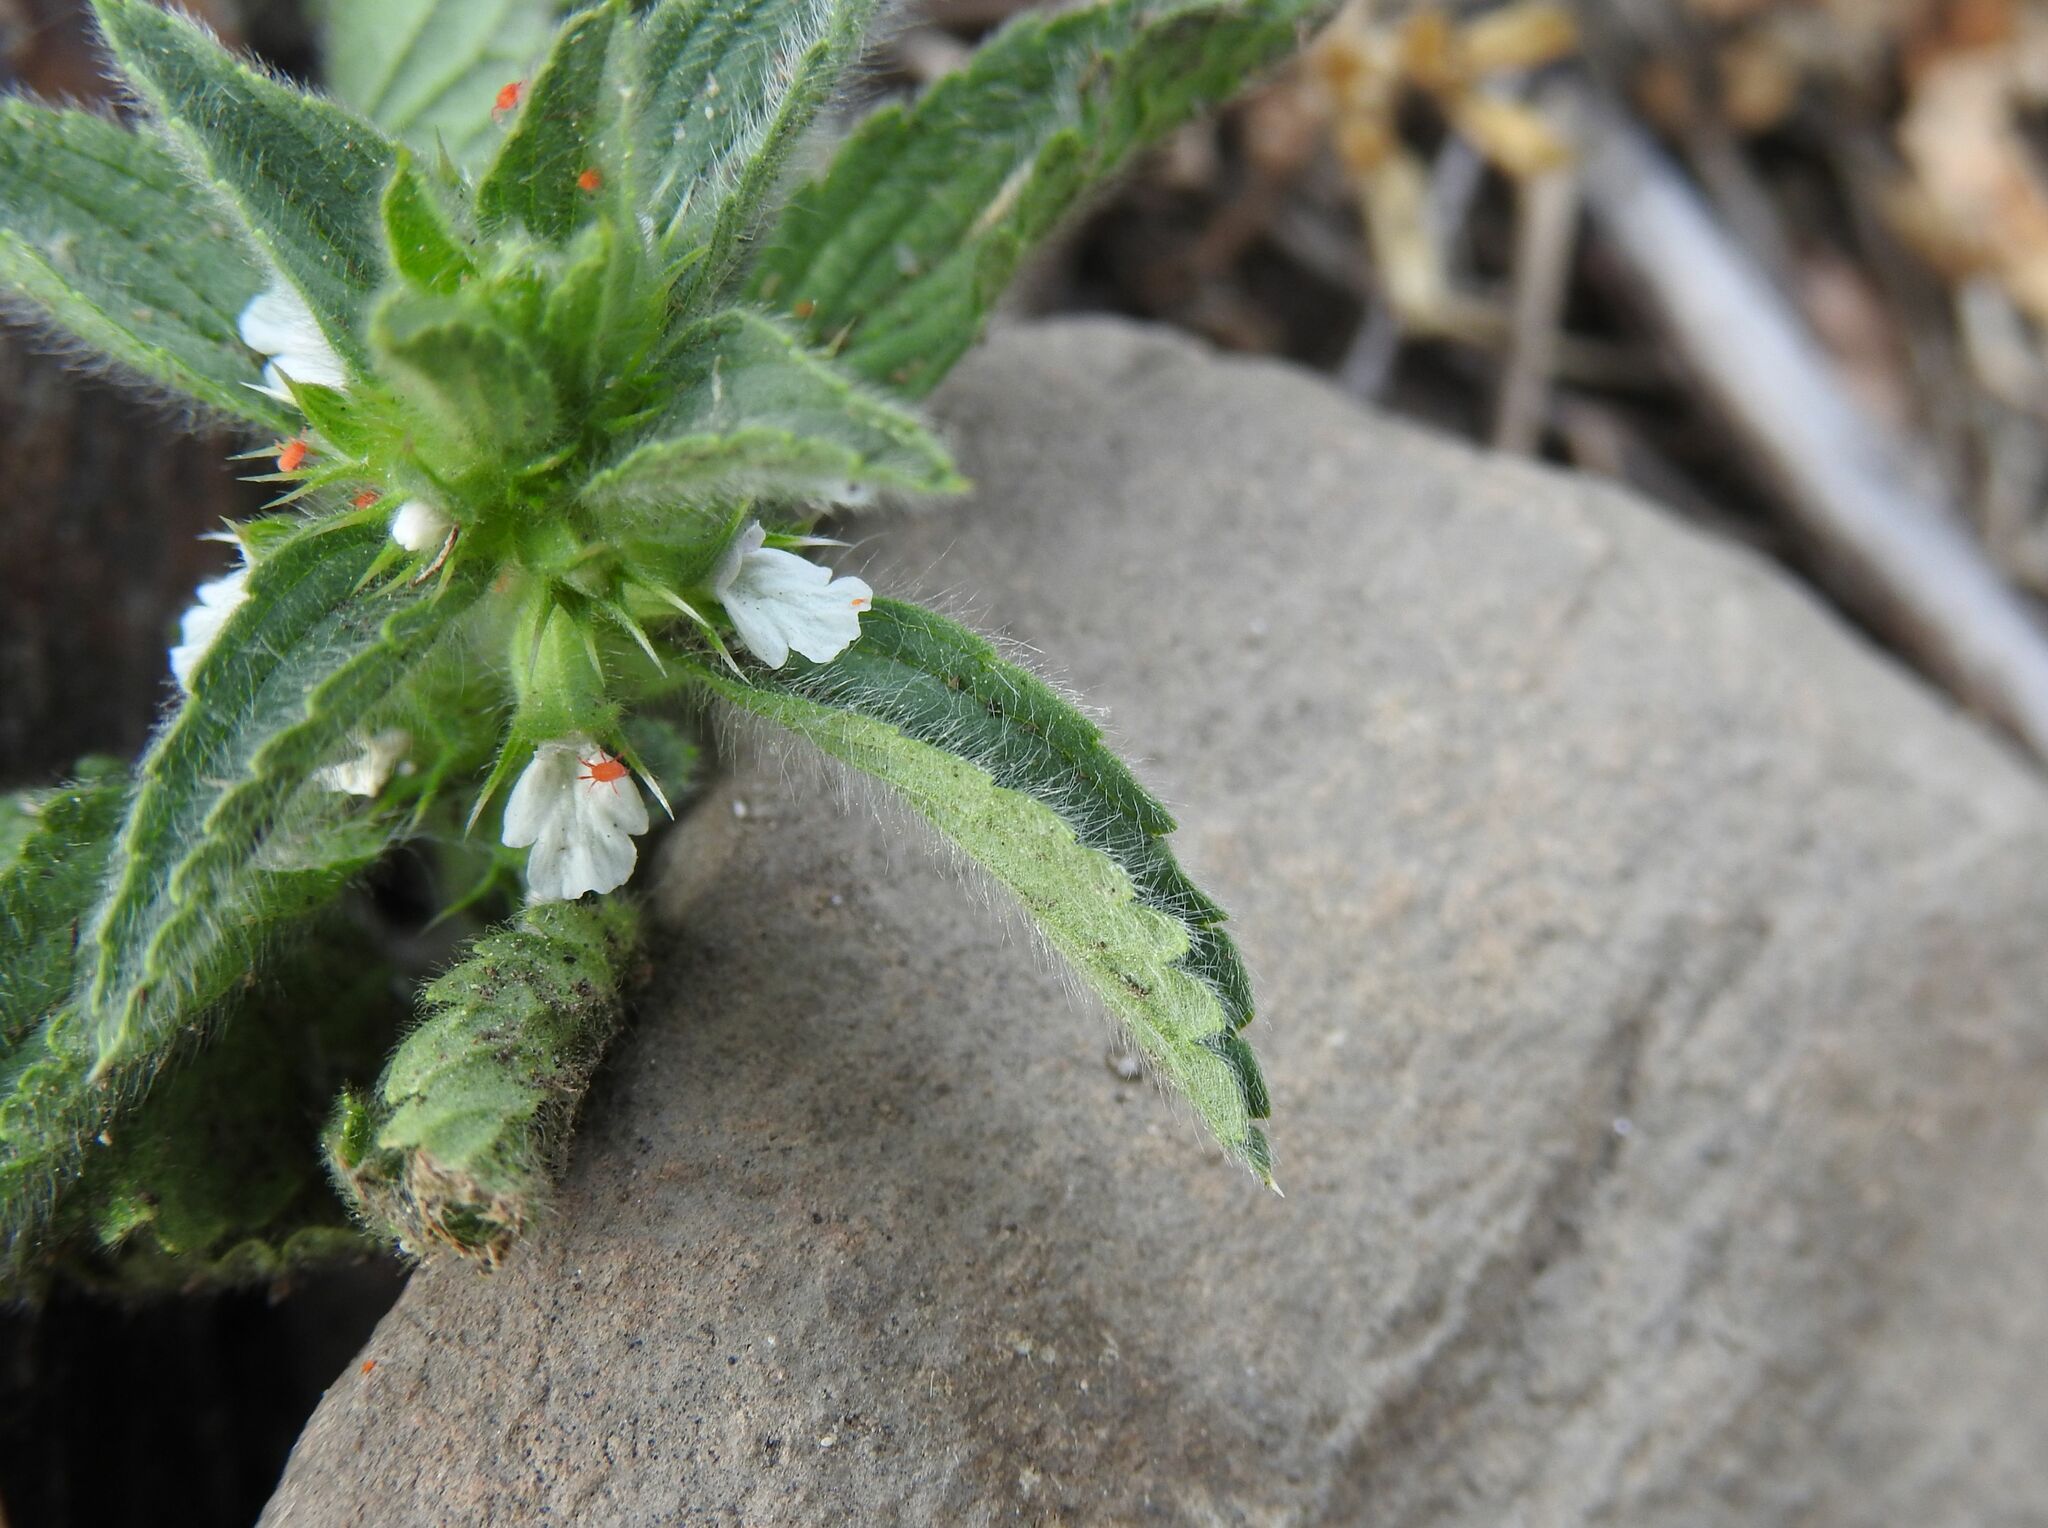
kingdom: Plantae
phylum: Tracheophyta
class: Magnoliopsida
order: Lamiales
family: Lamiaceae
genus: Sideritis
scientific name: Sideritis romana
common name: Simplebeak ironwort
